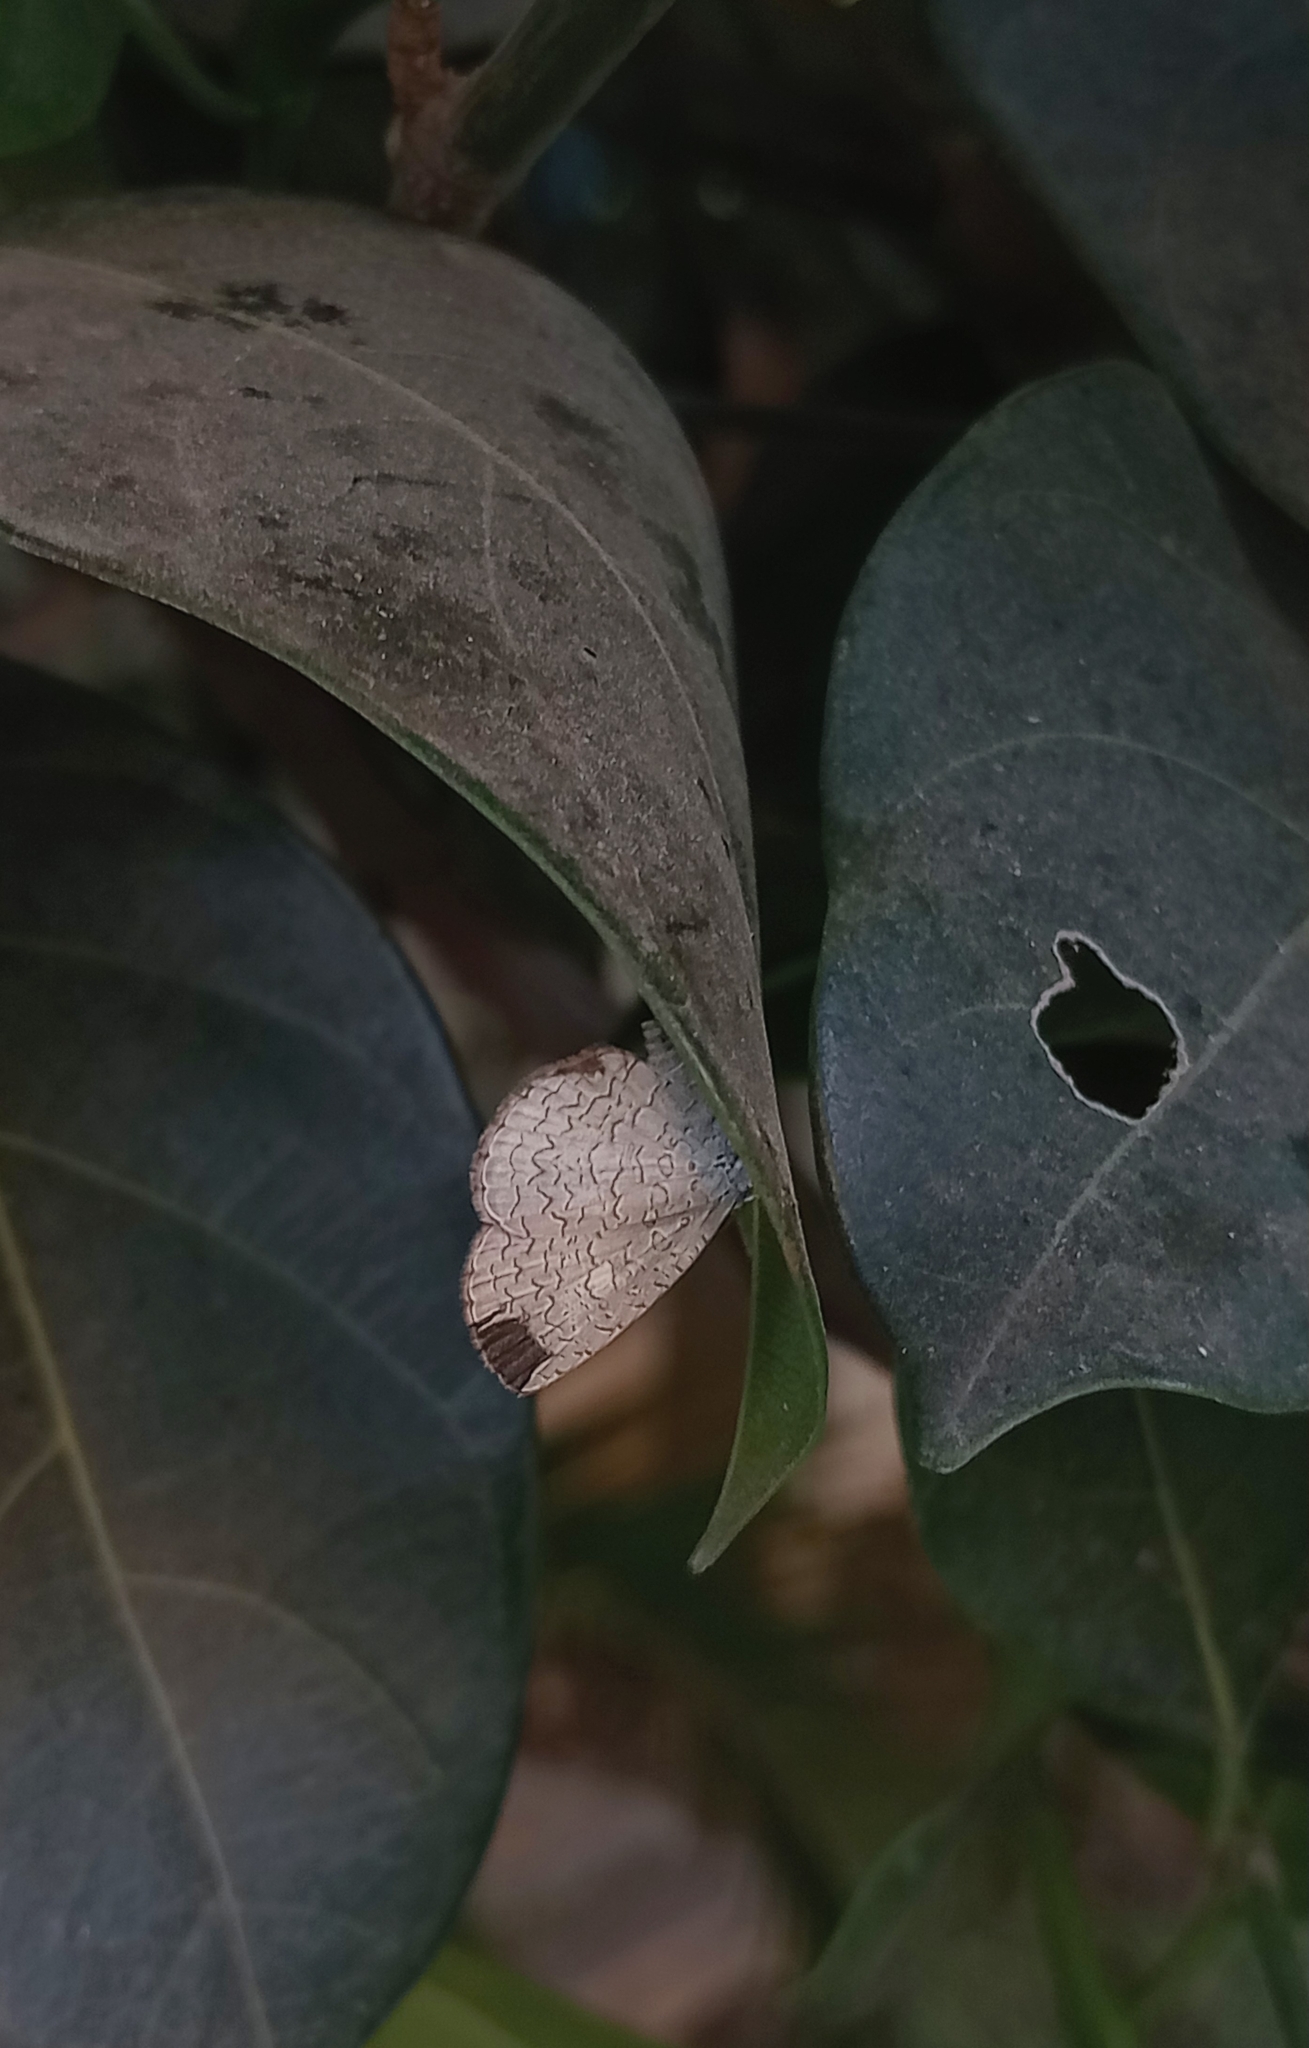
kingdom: Animalia
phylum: Arthropoda
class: Insecta
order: Lepidoptera
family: Lycaenidae
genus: Spalgis
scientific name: Spalgis epius
